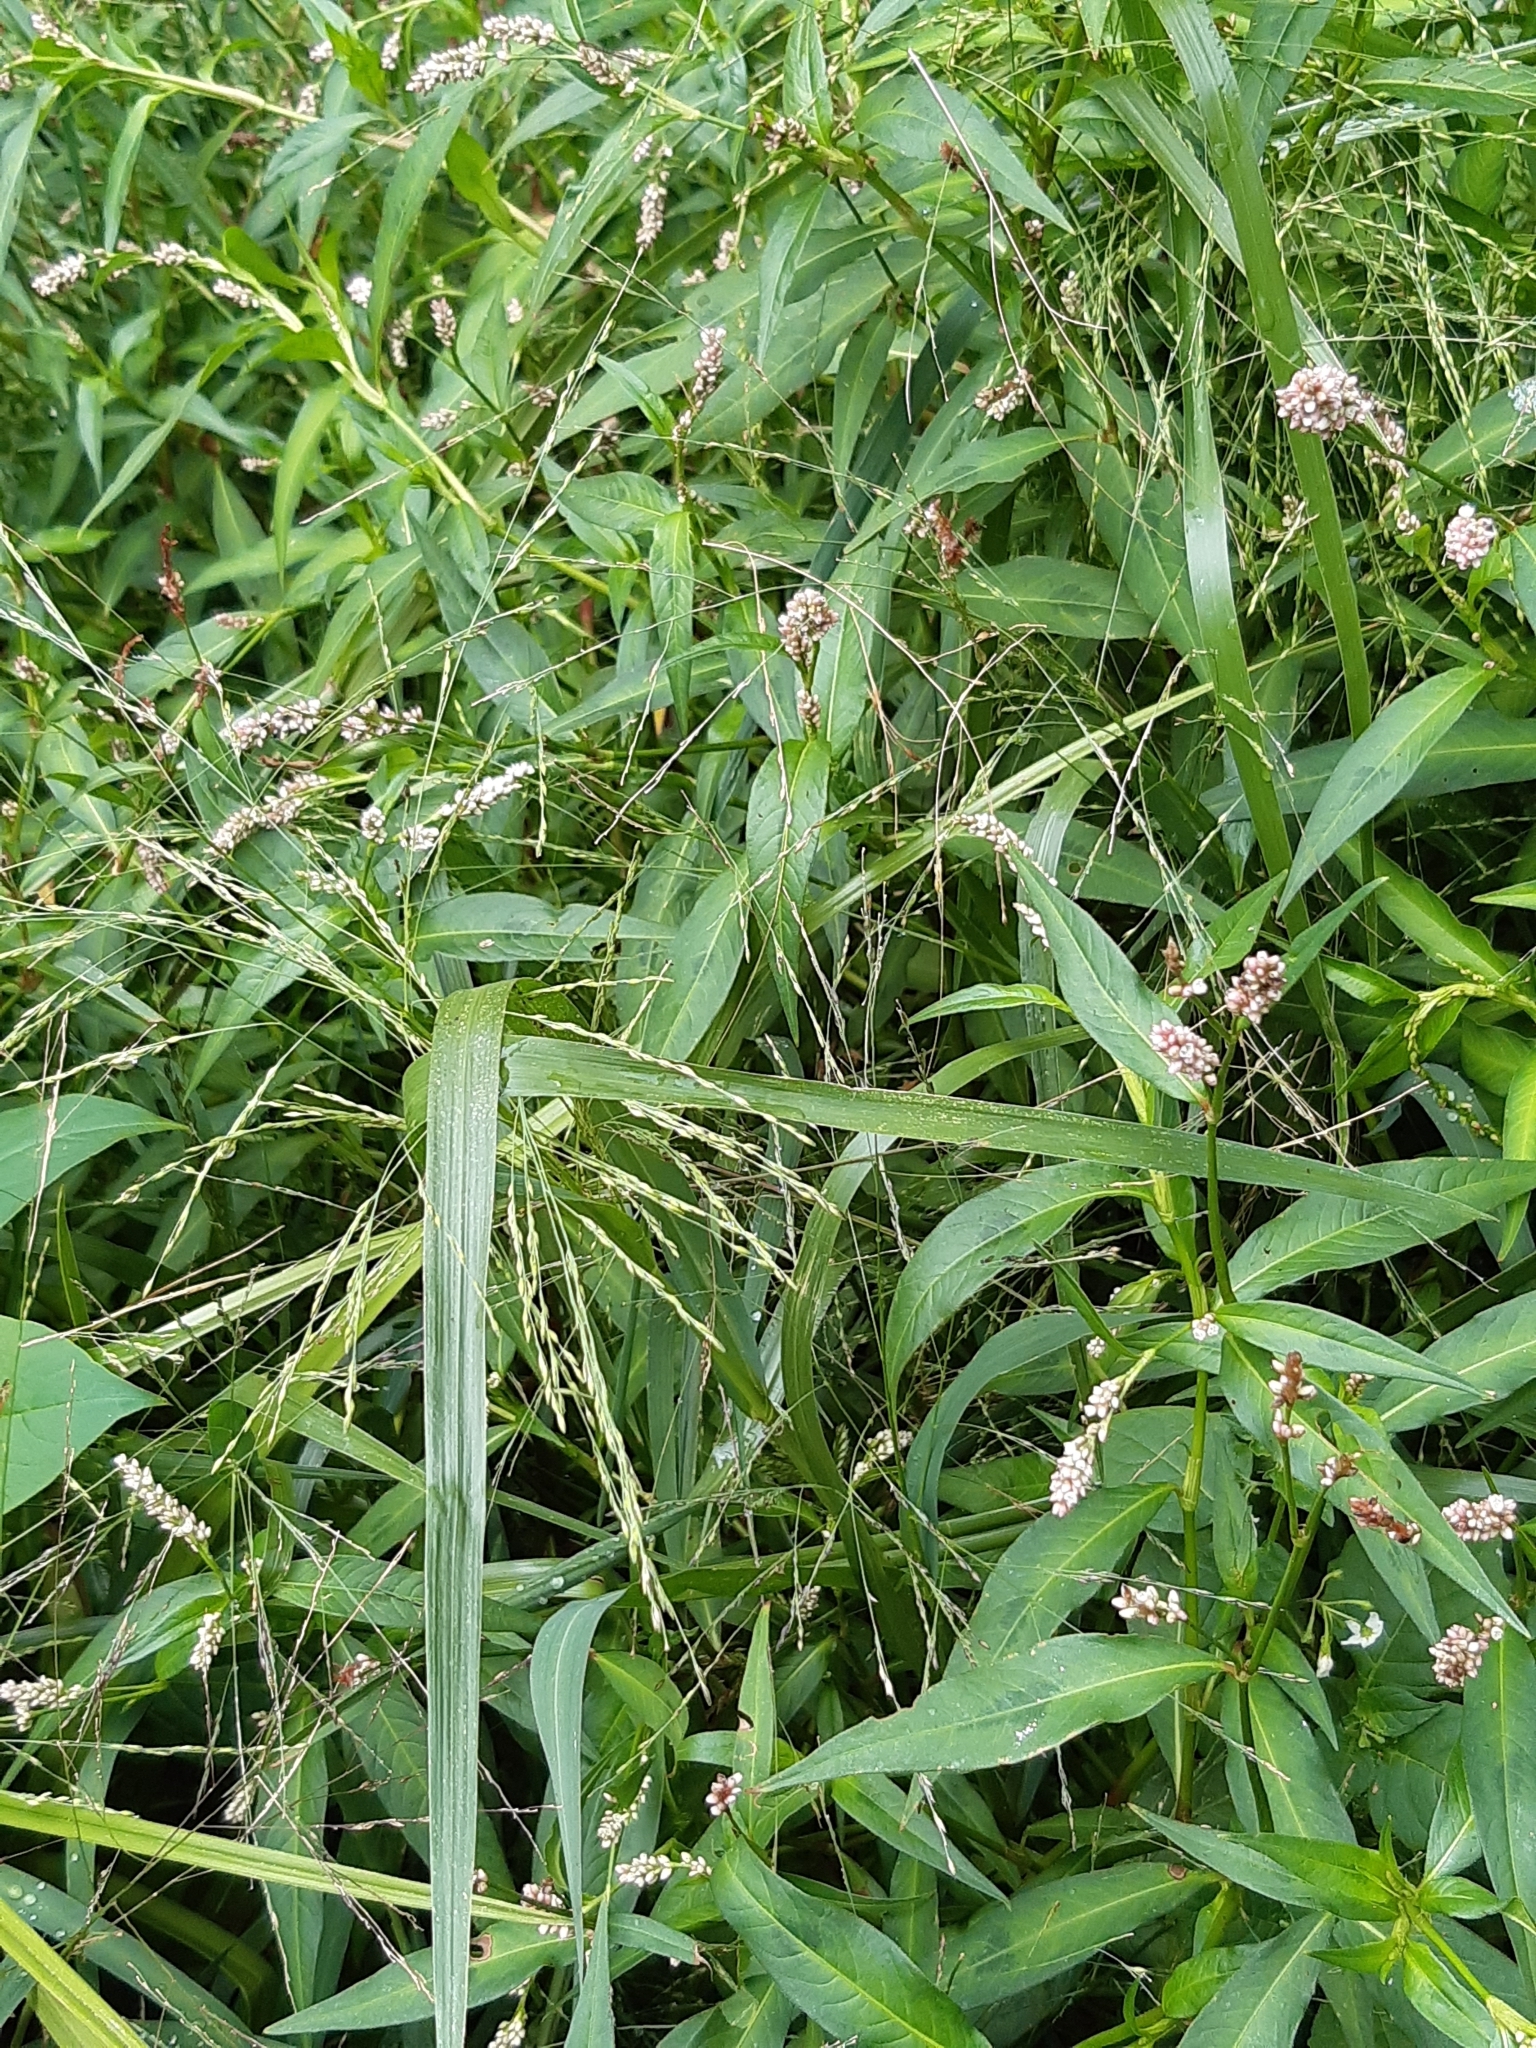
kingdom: Plantae
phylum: Tracheophyta
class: Magnoliopsida
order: Caryophyllales
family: Polygonaceae
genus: Persicaria
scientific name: Persicaria maculosa
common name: Redshank
